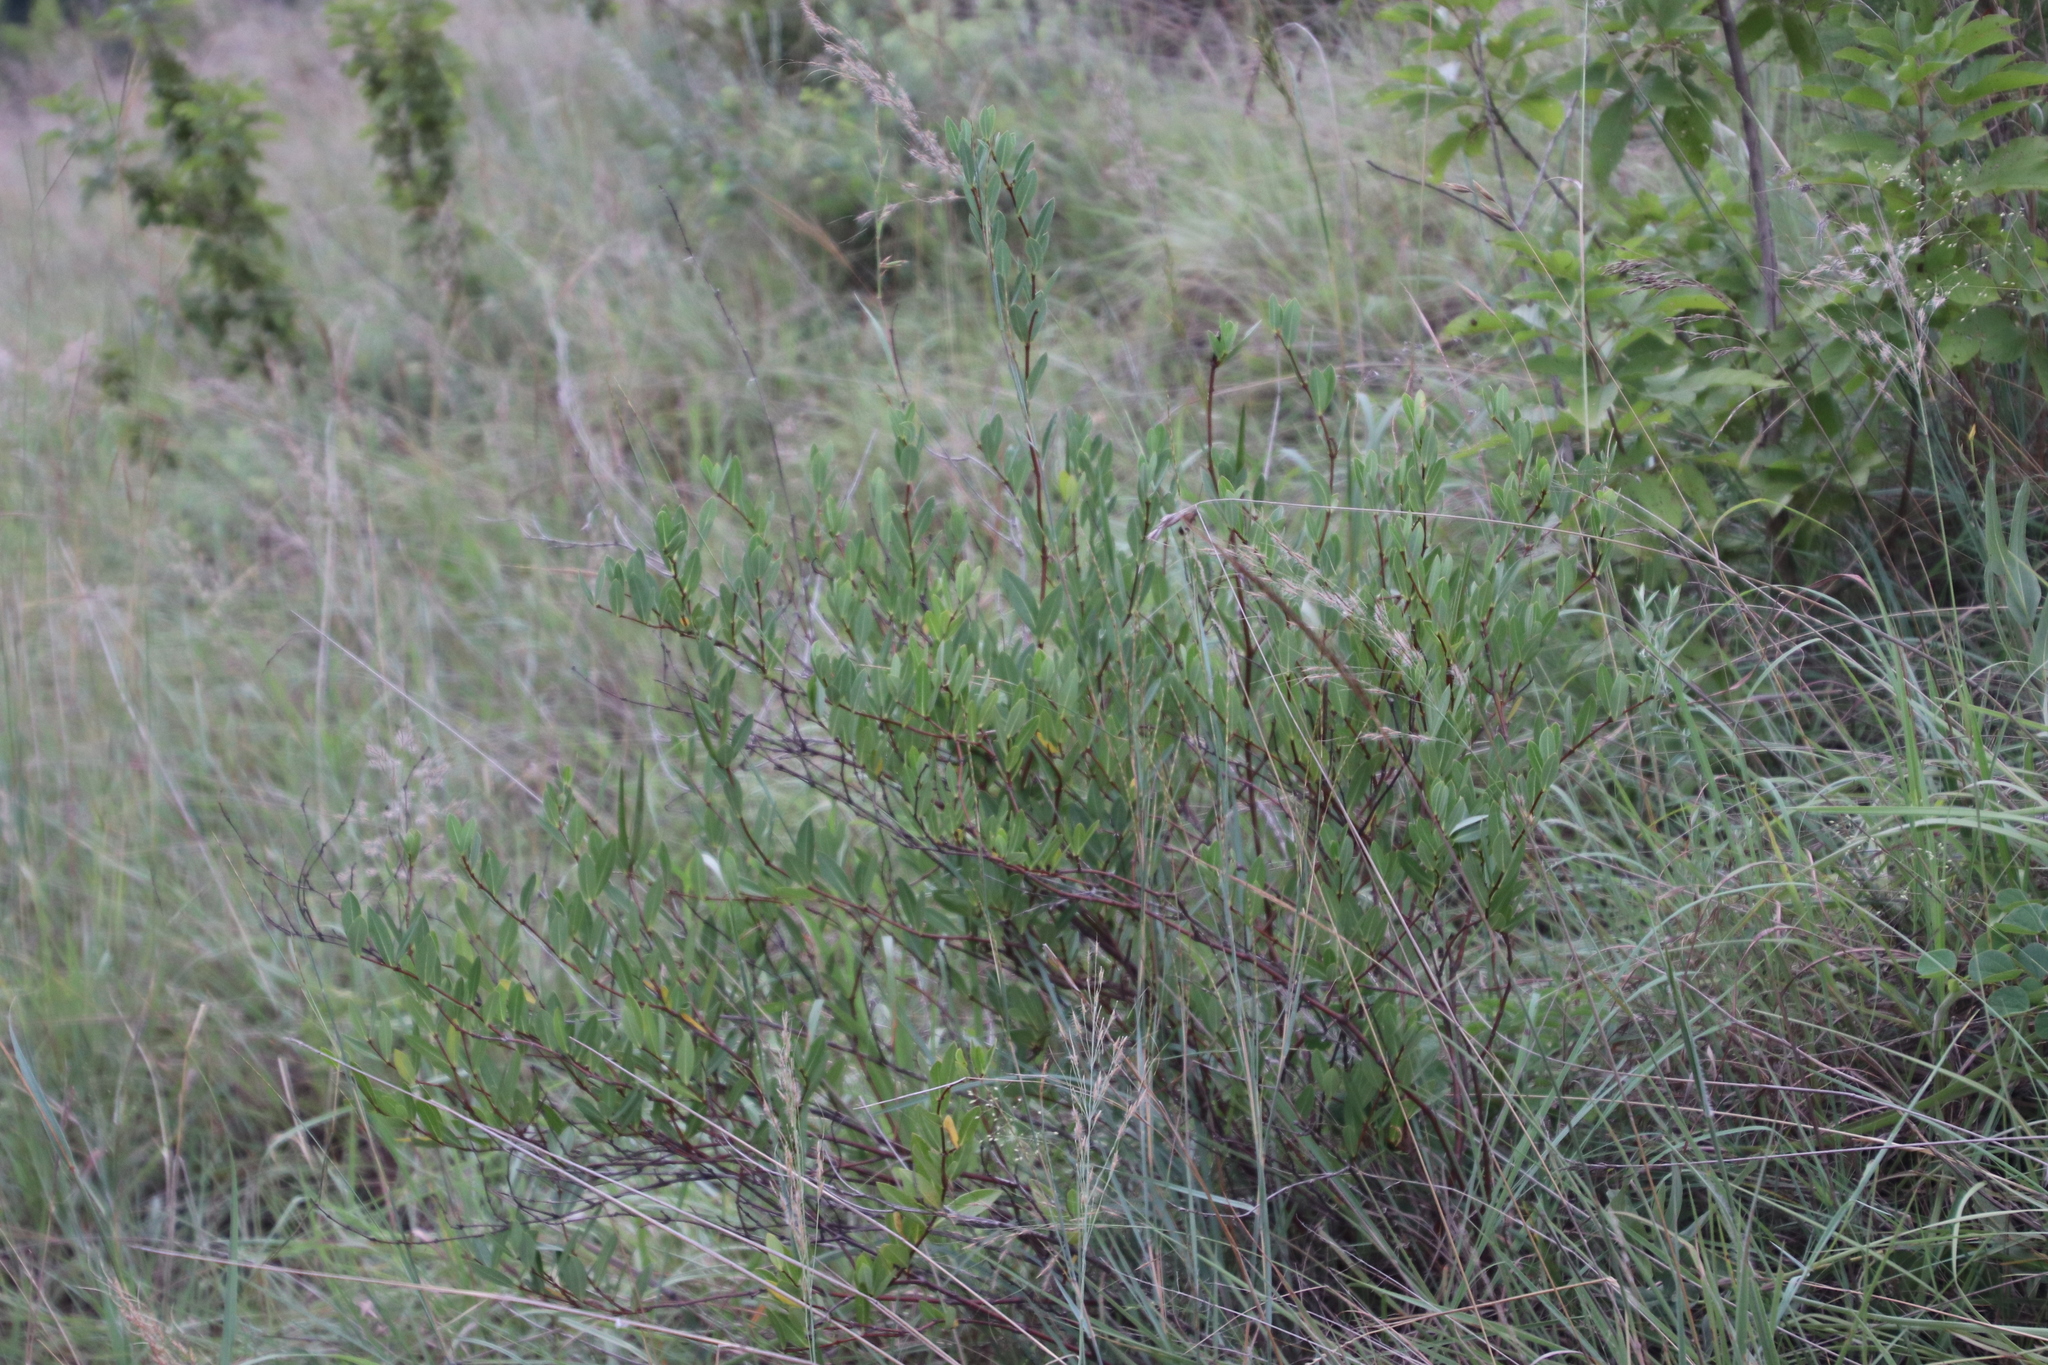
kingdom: Plantae
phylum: Tracheophyta
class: Magnoliopsida
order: Gentianales
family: Apocynaceae
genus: Cryptolepis
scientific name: Cryptolepis oblongifolia
